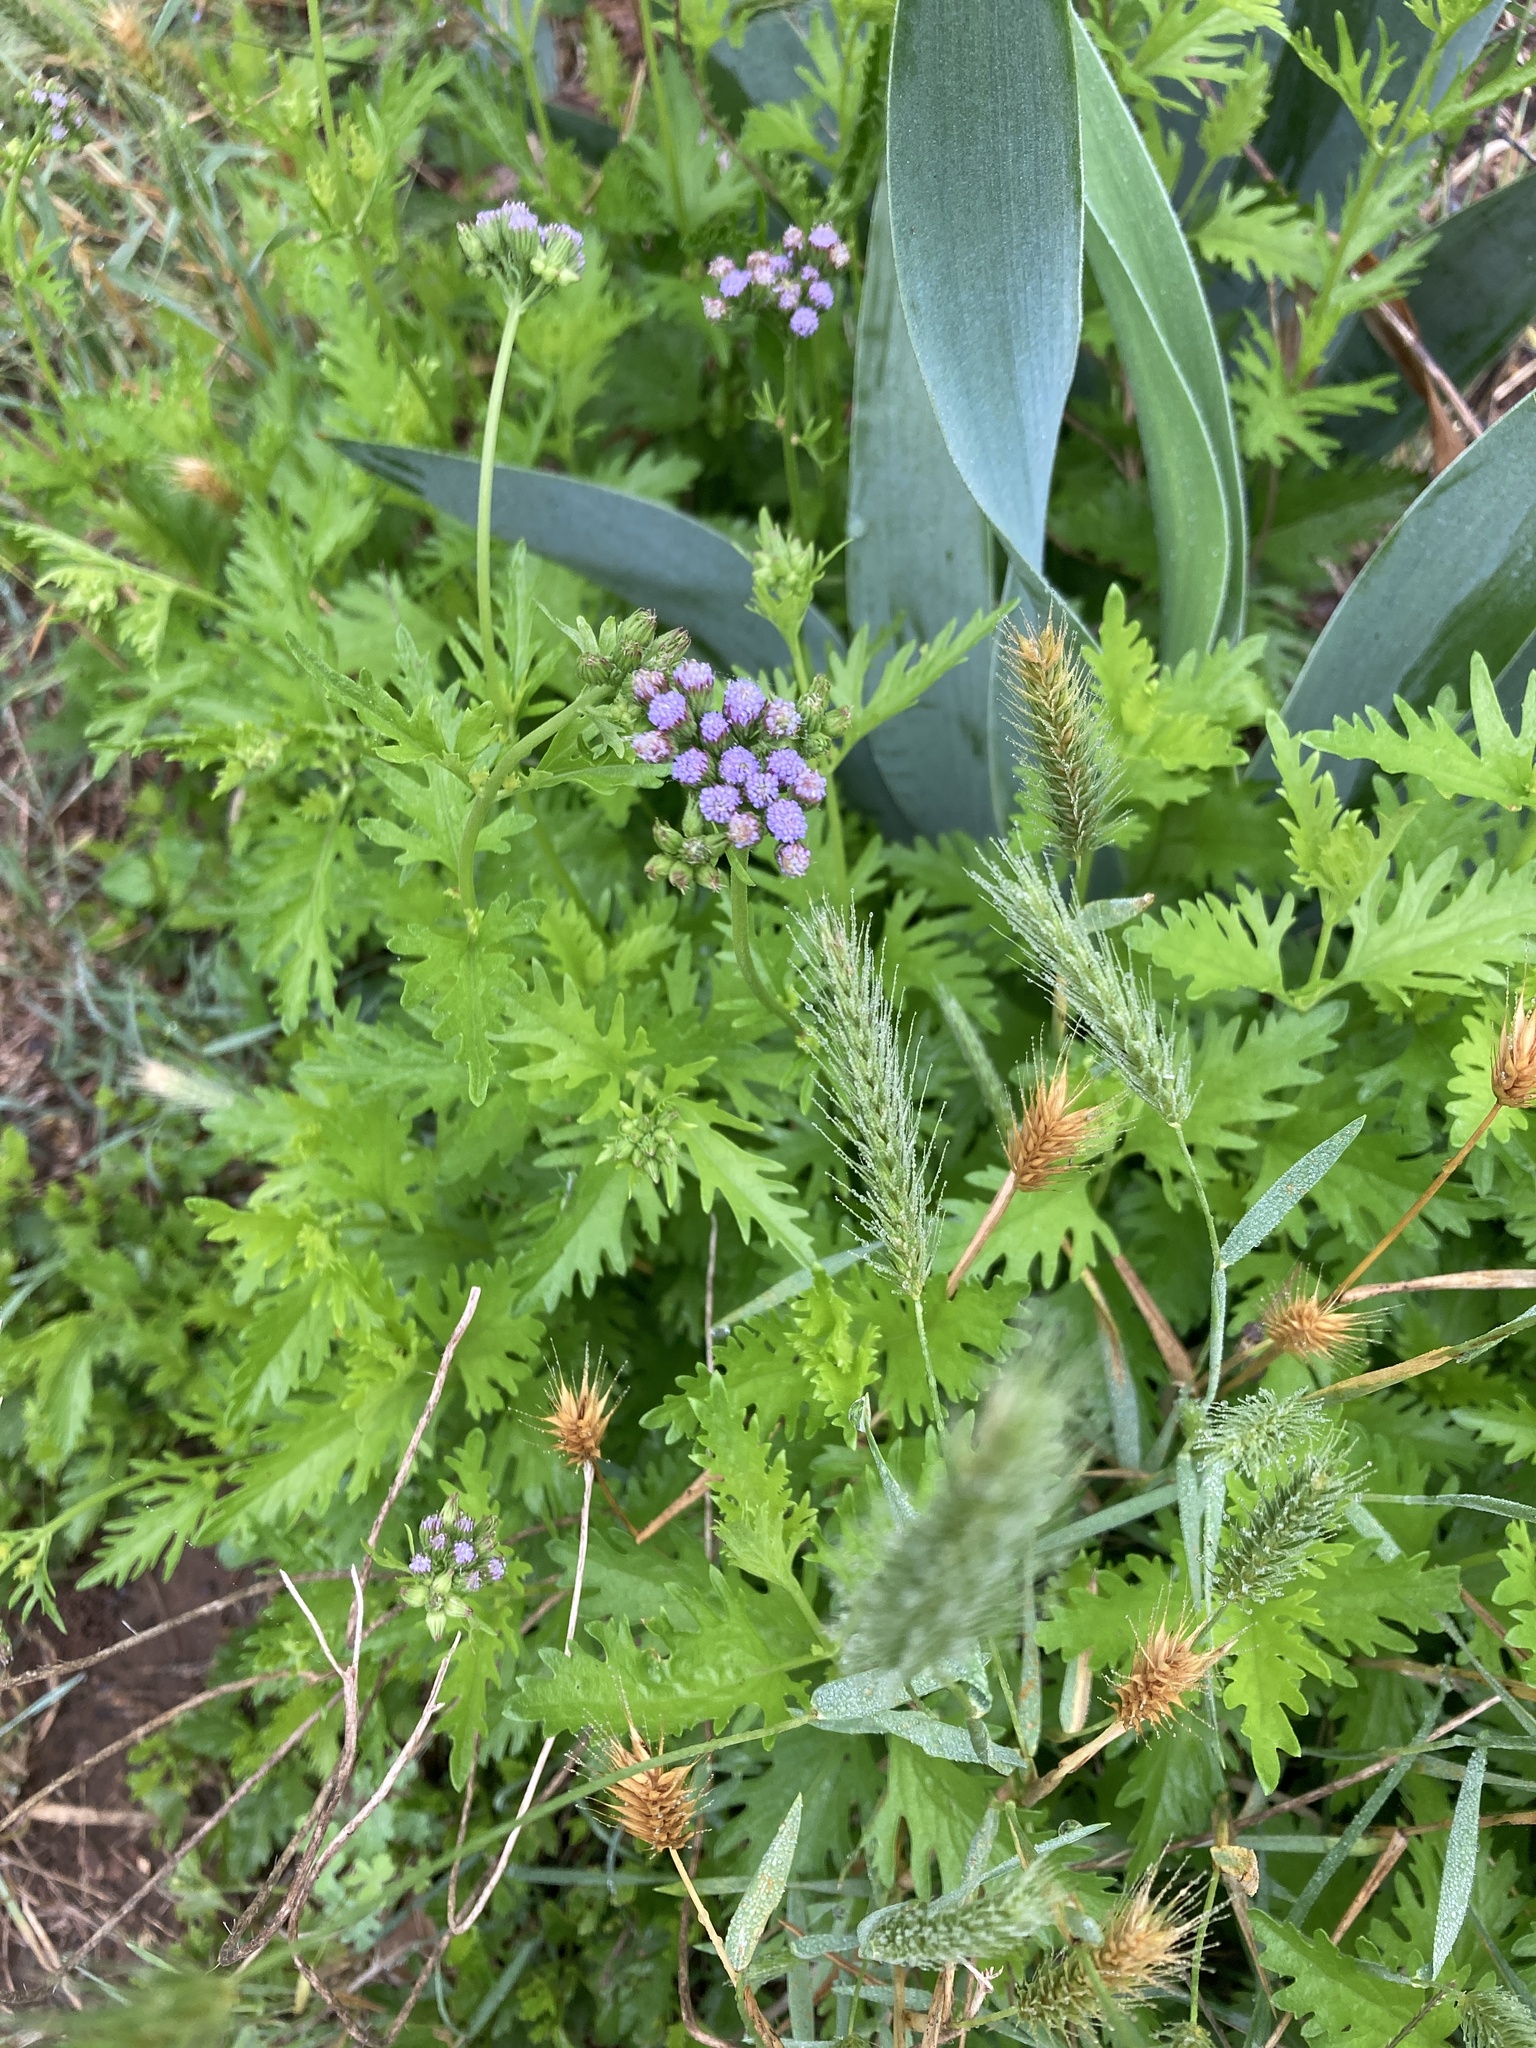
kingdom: Plantae
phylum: Tracheophyta
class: Magnoliopsida
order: Asterales
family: Asteraceae
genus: Conoclinium
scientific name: Conoclinium dissectum
